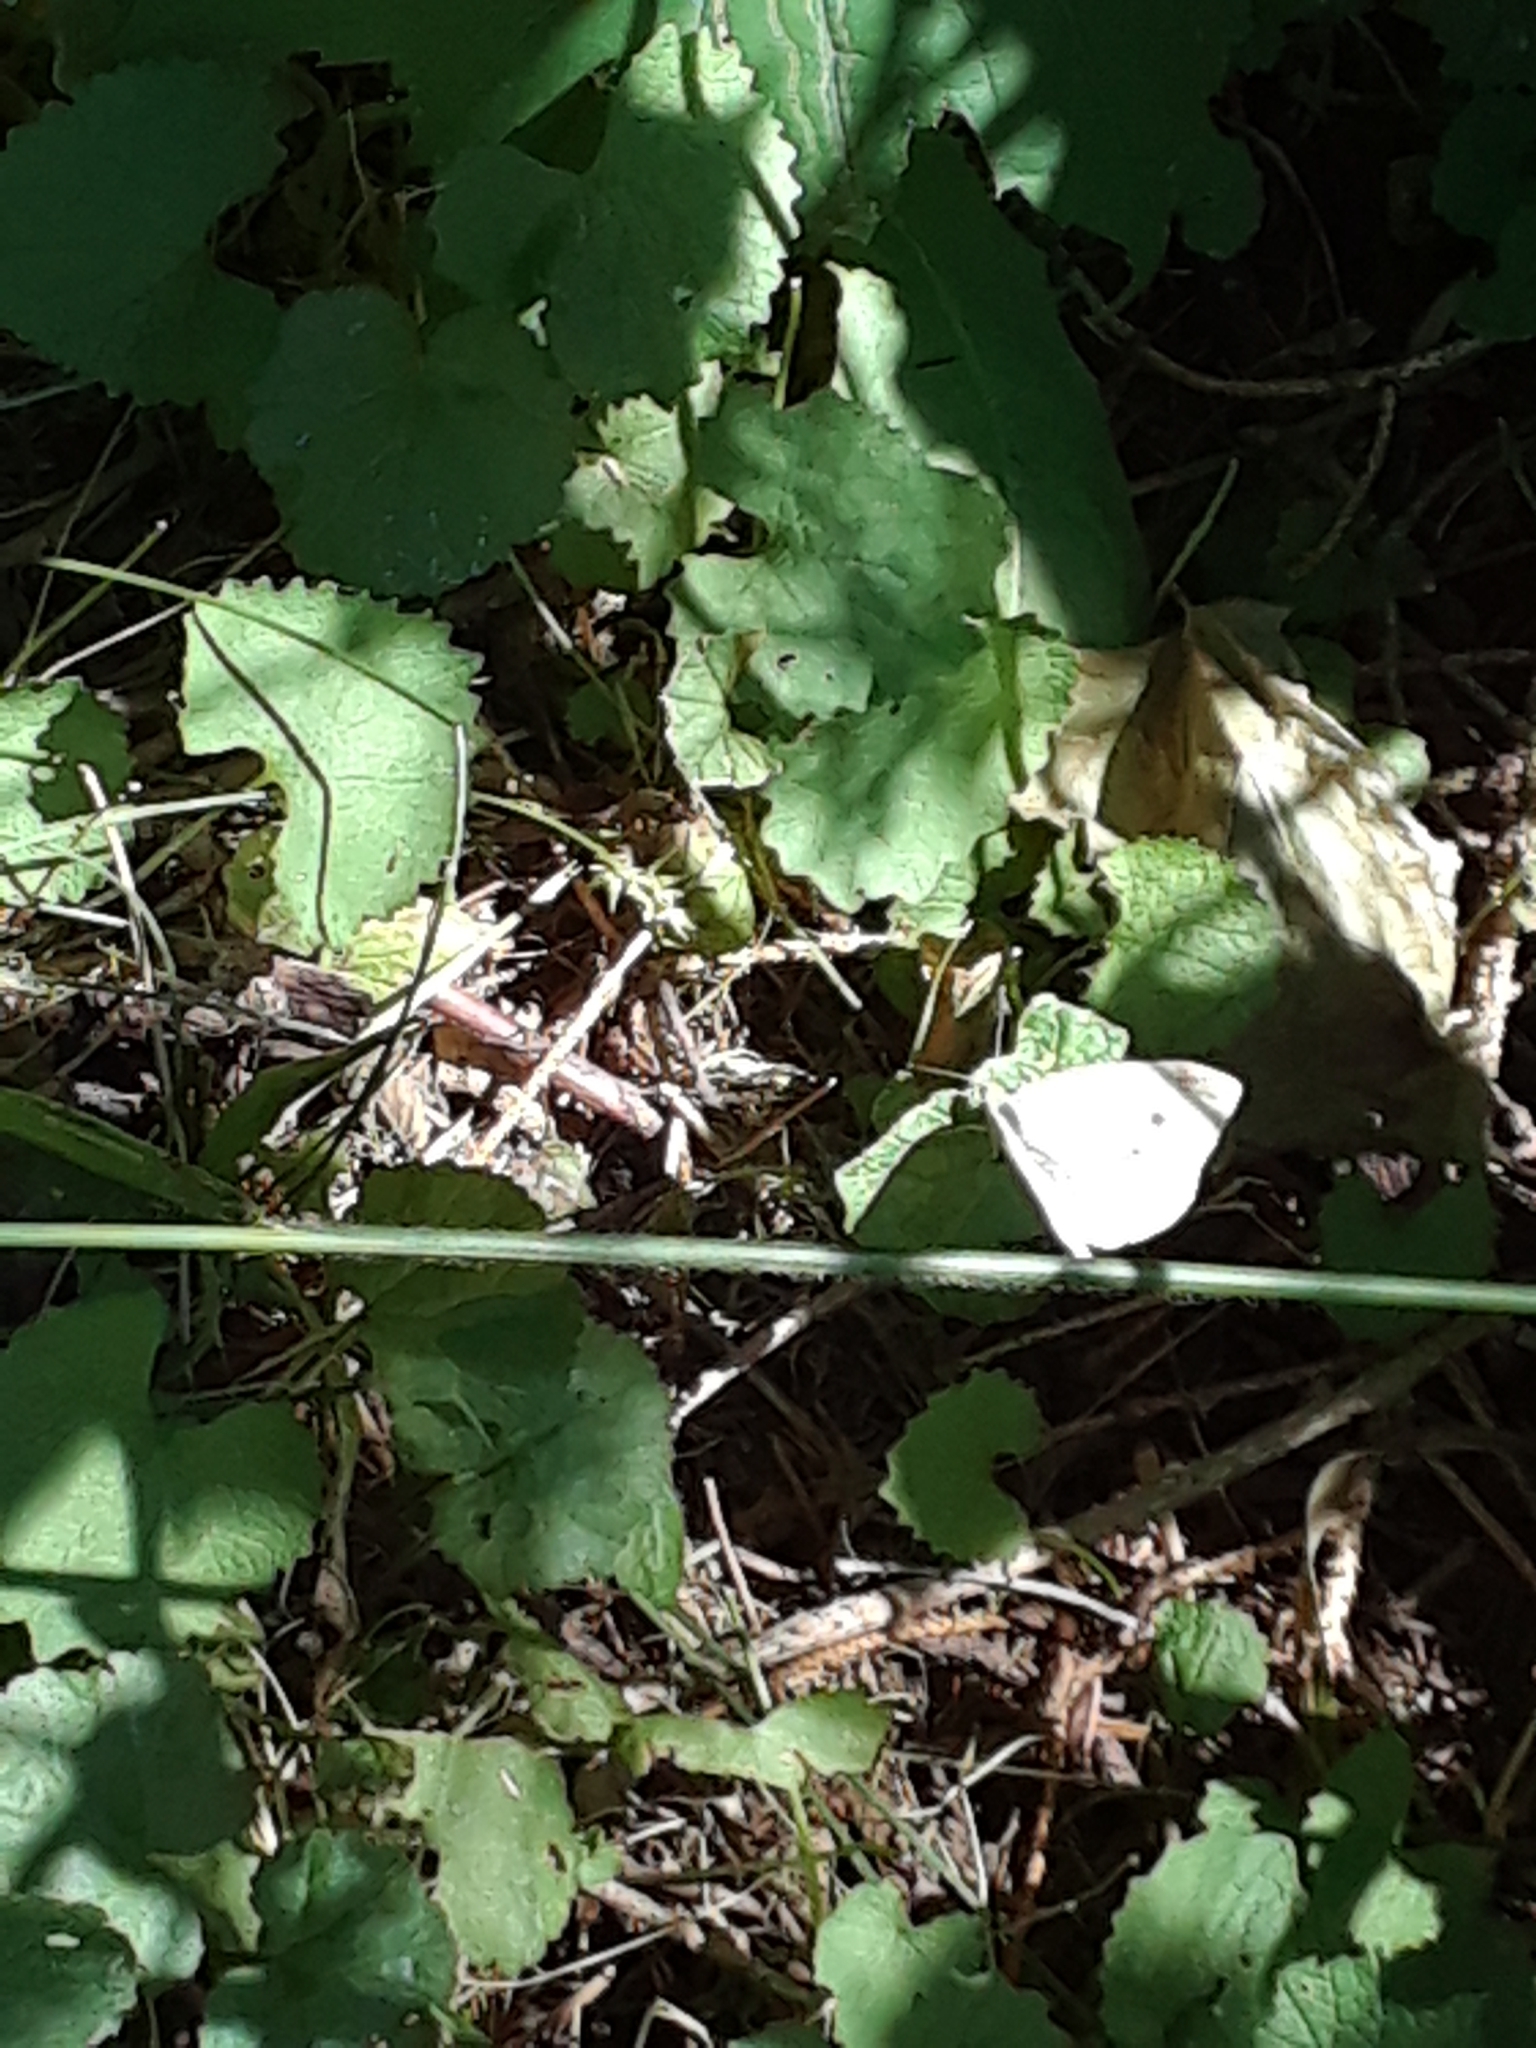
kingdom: Animalia
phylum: Arthropoda
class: Insecta
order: Lepidoptera
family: Pieridae
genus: Pieris
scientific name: Pieris rapae
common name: Small white
